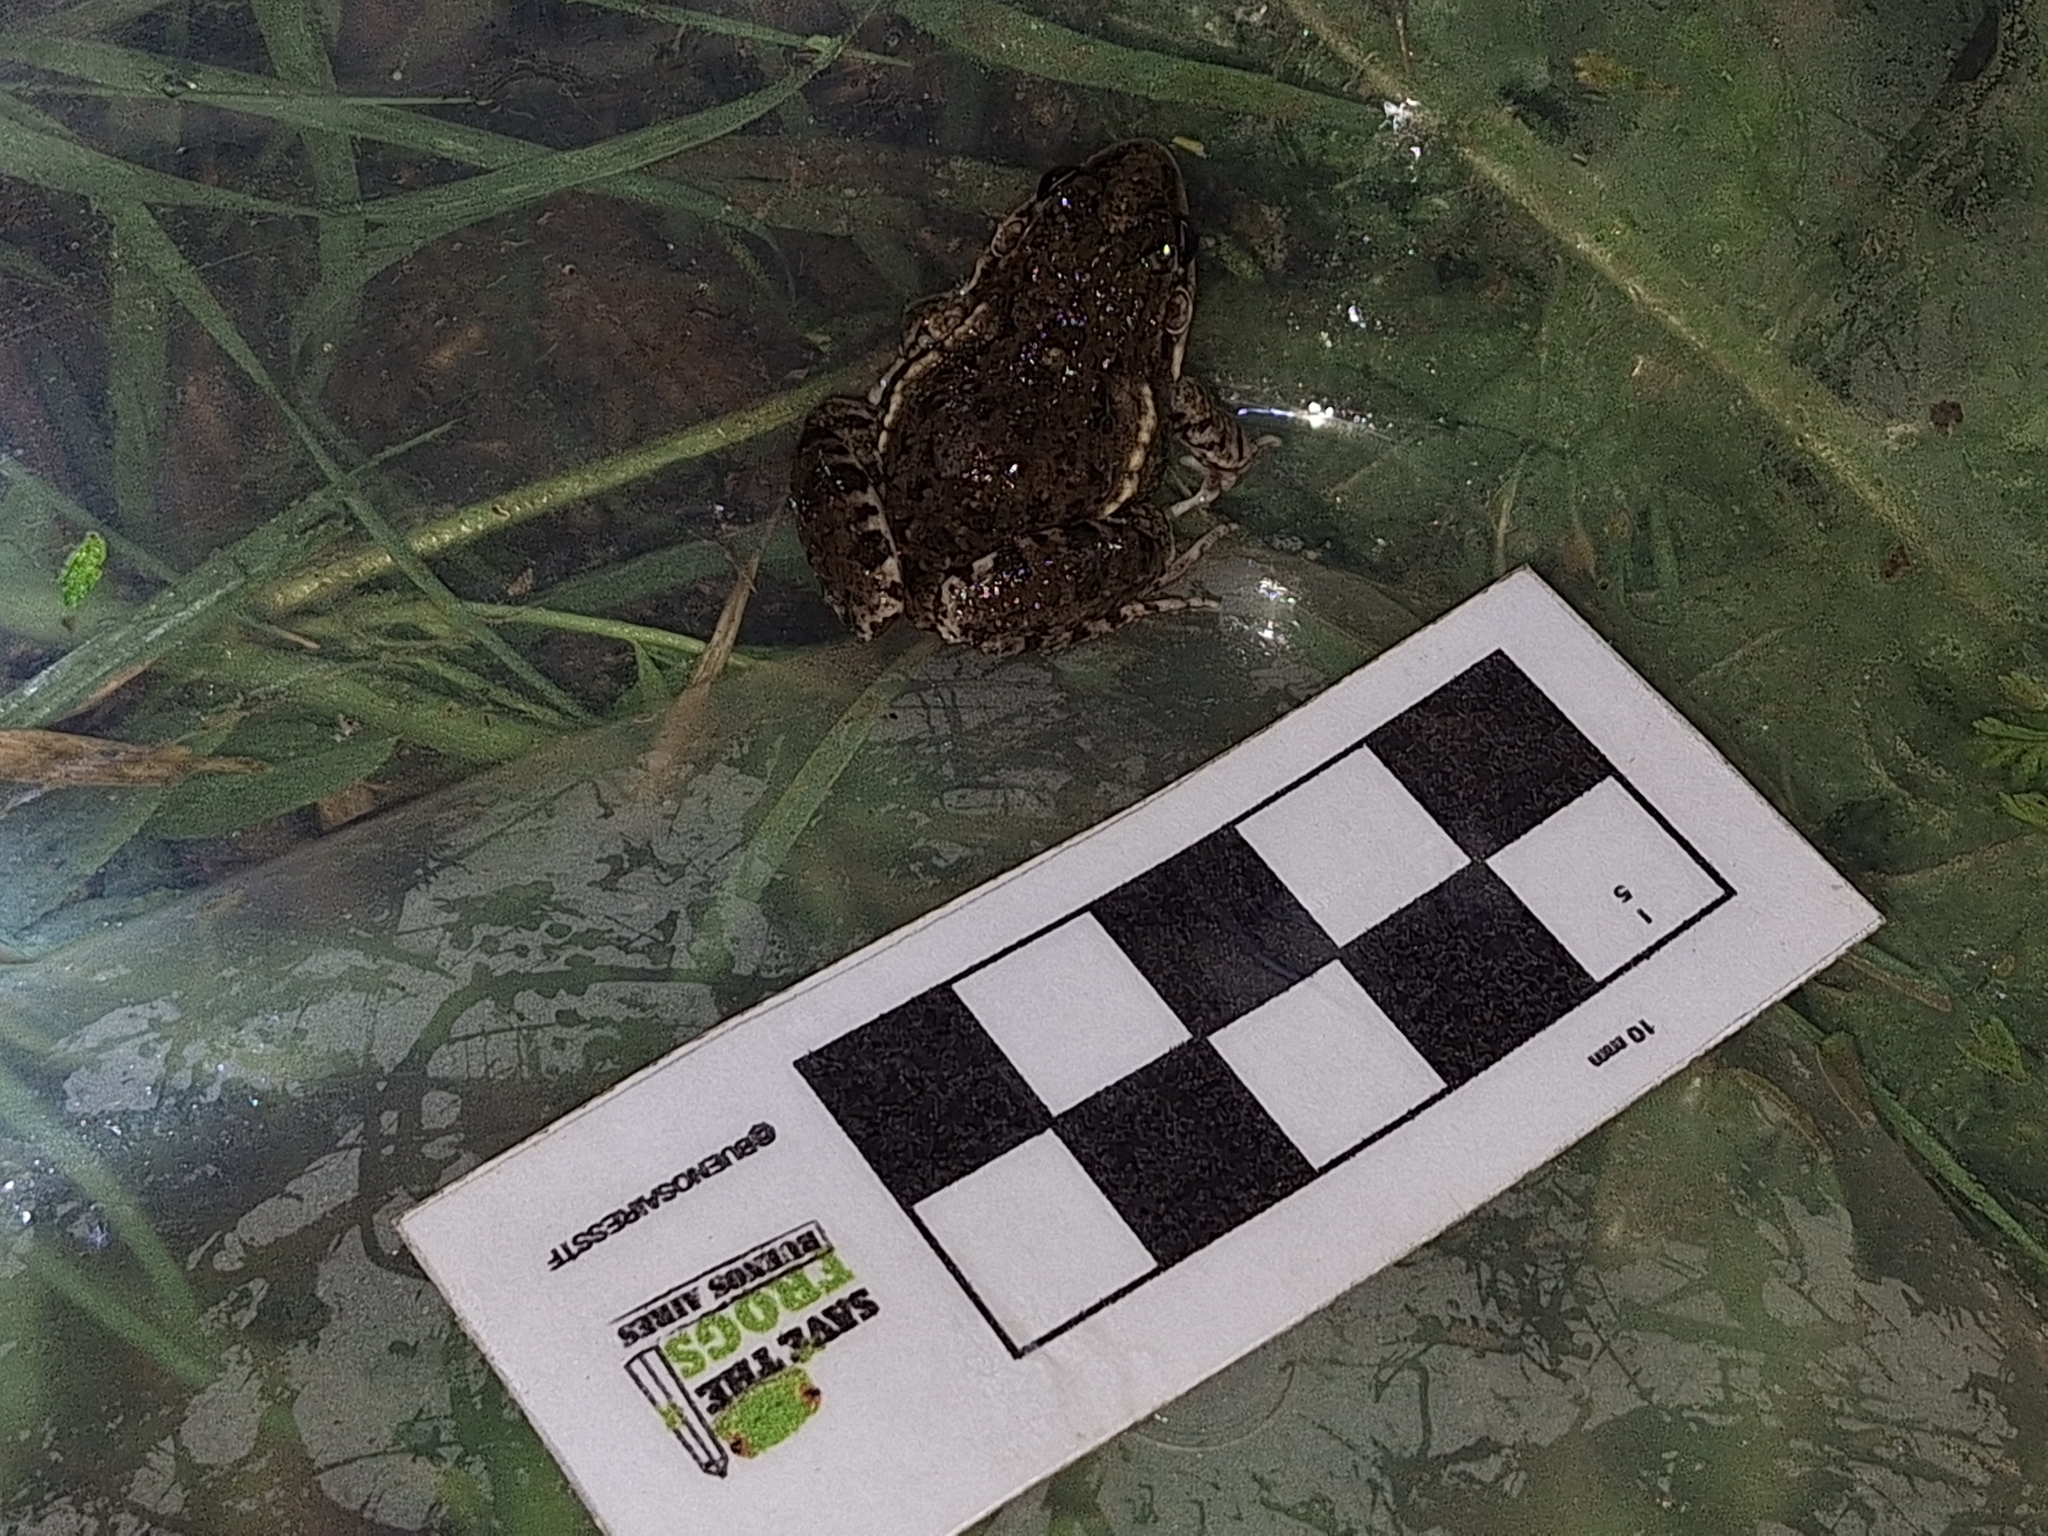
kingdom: Animalia
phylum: Chordata
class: Amphibia
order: Anura
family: Leptodactylidae
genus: Leptodactylus
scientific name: Leptodactylus latinasus
